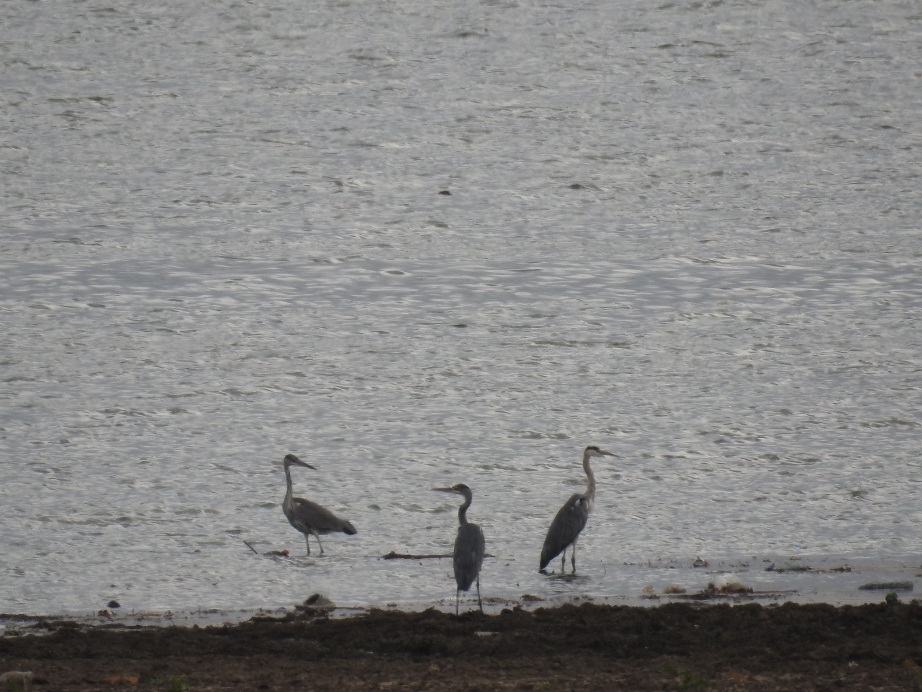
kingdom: Animalia
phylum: Chordata
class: Aves
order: Pelecaniformes
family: Ardeidae
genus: Ardea
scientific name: Ardea cinerea
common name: Grey heron
